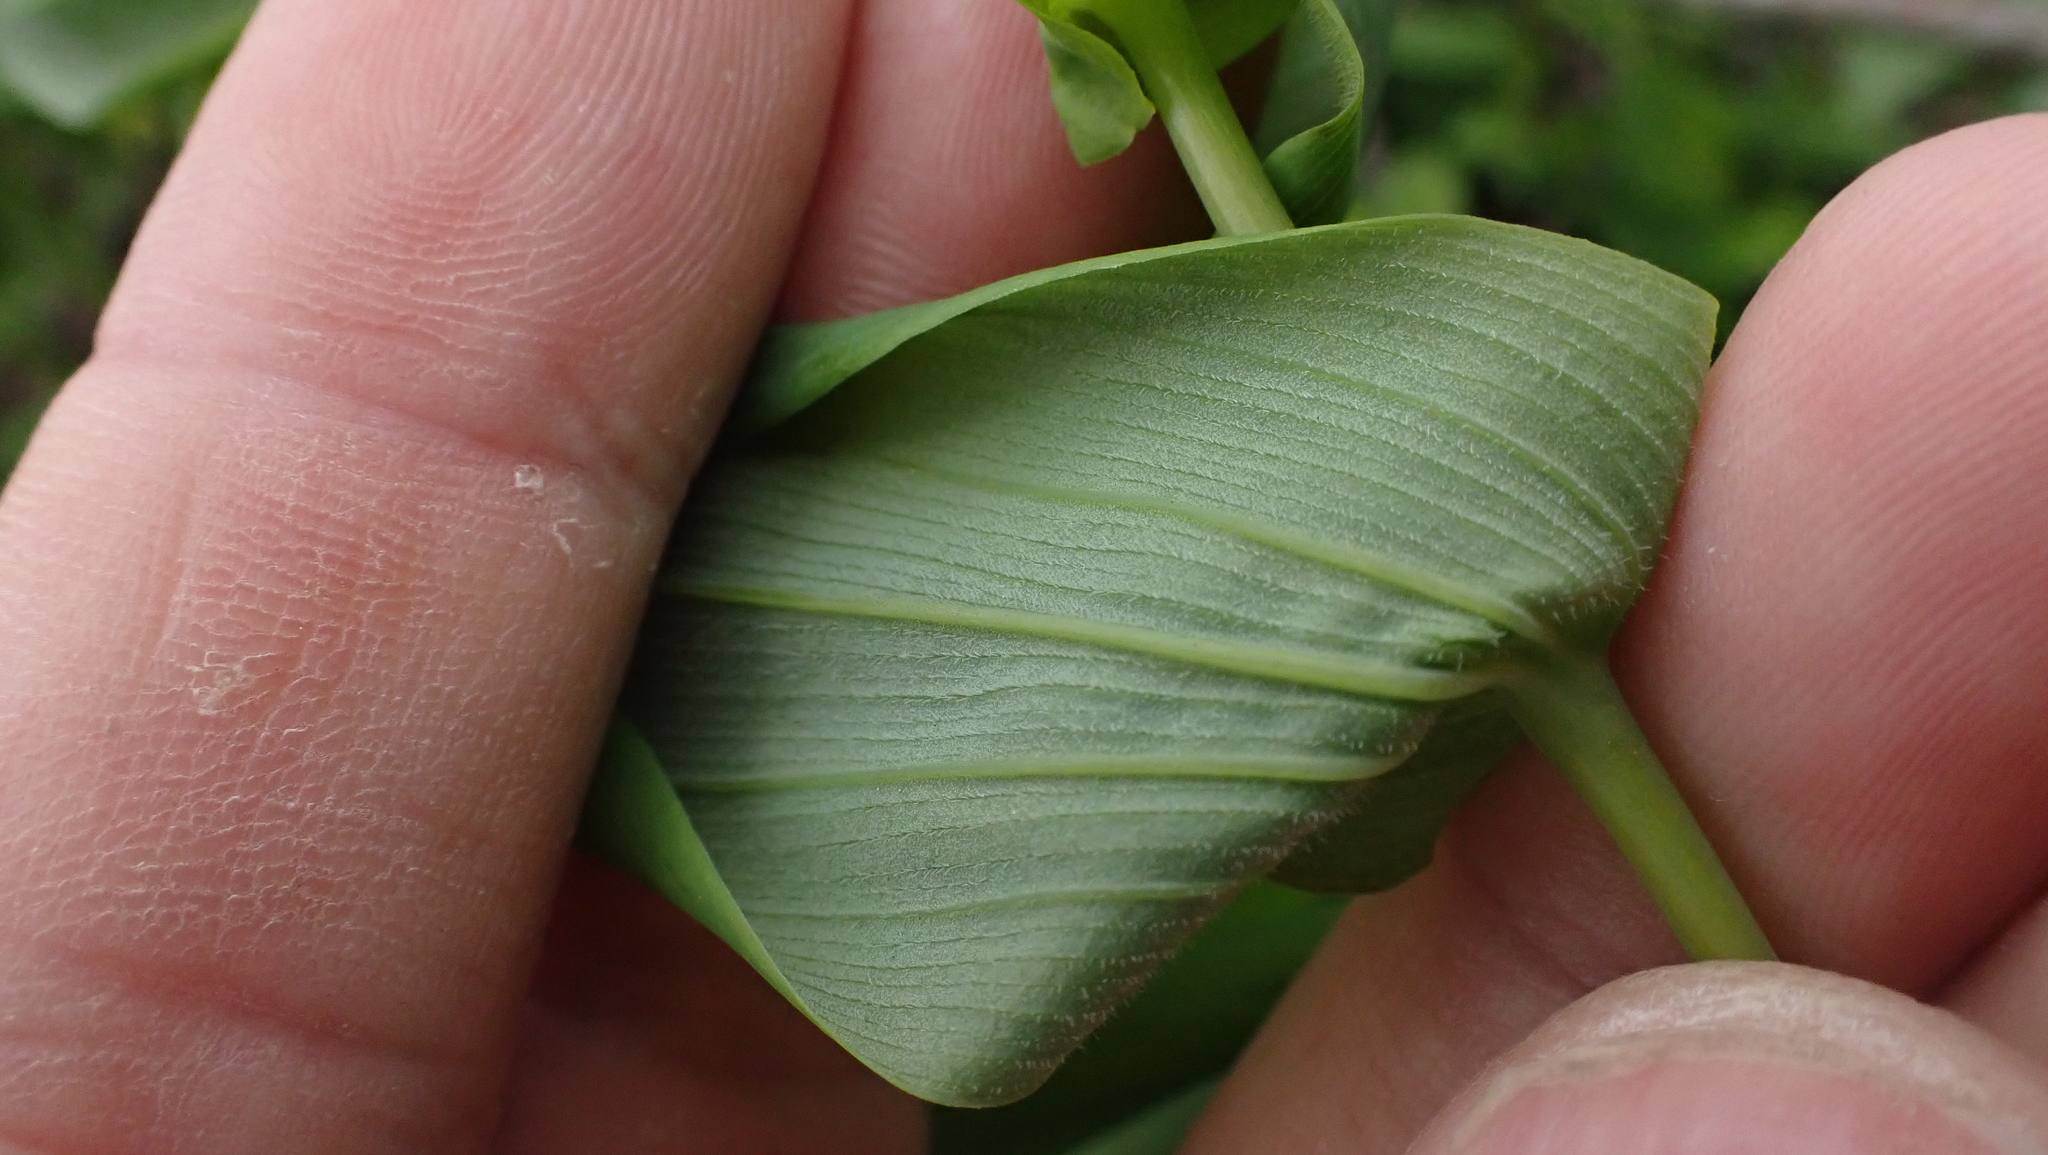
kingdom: Plantae
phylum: Tracheophyta
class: Liliopsida
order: Liliales
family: Colchicaceae
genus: Uvularia
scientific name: Uvularia grandiflora
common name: Bellwort
